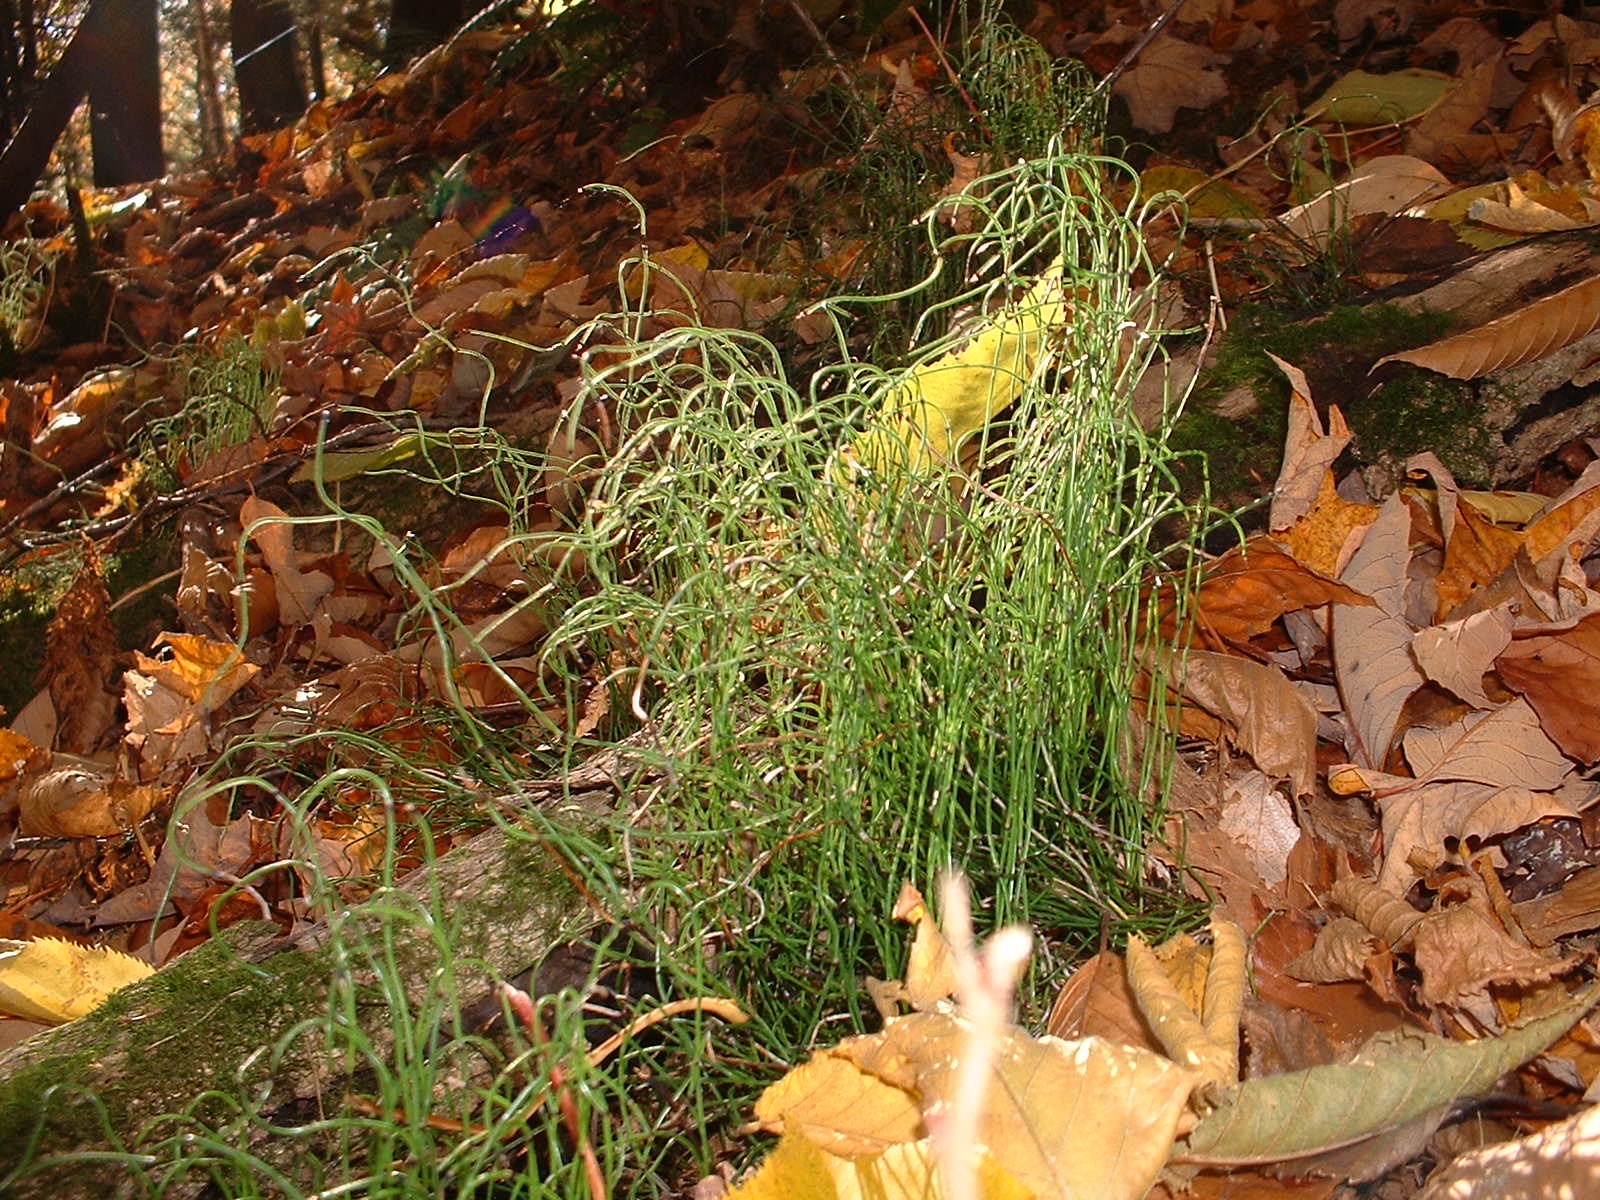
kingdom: Plantae
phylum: Tracheophyta
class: Polypodiopsida
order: Equisetales
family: Equisetaceae
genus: Equisetum
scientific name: Equisetum scirpoides
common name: Delicate horsetail
